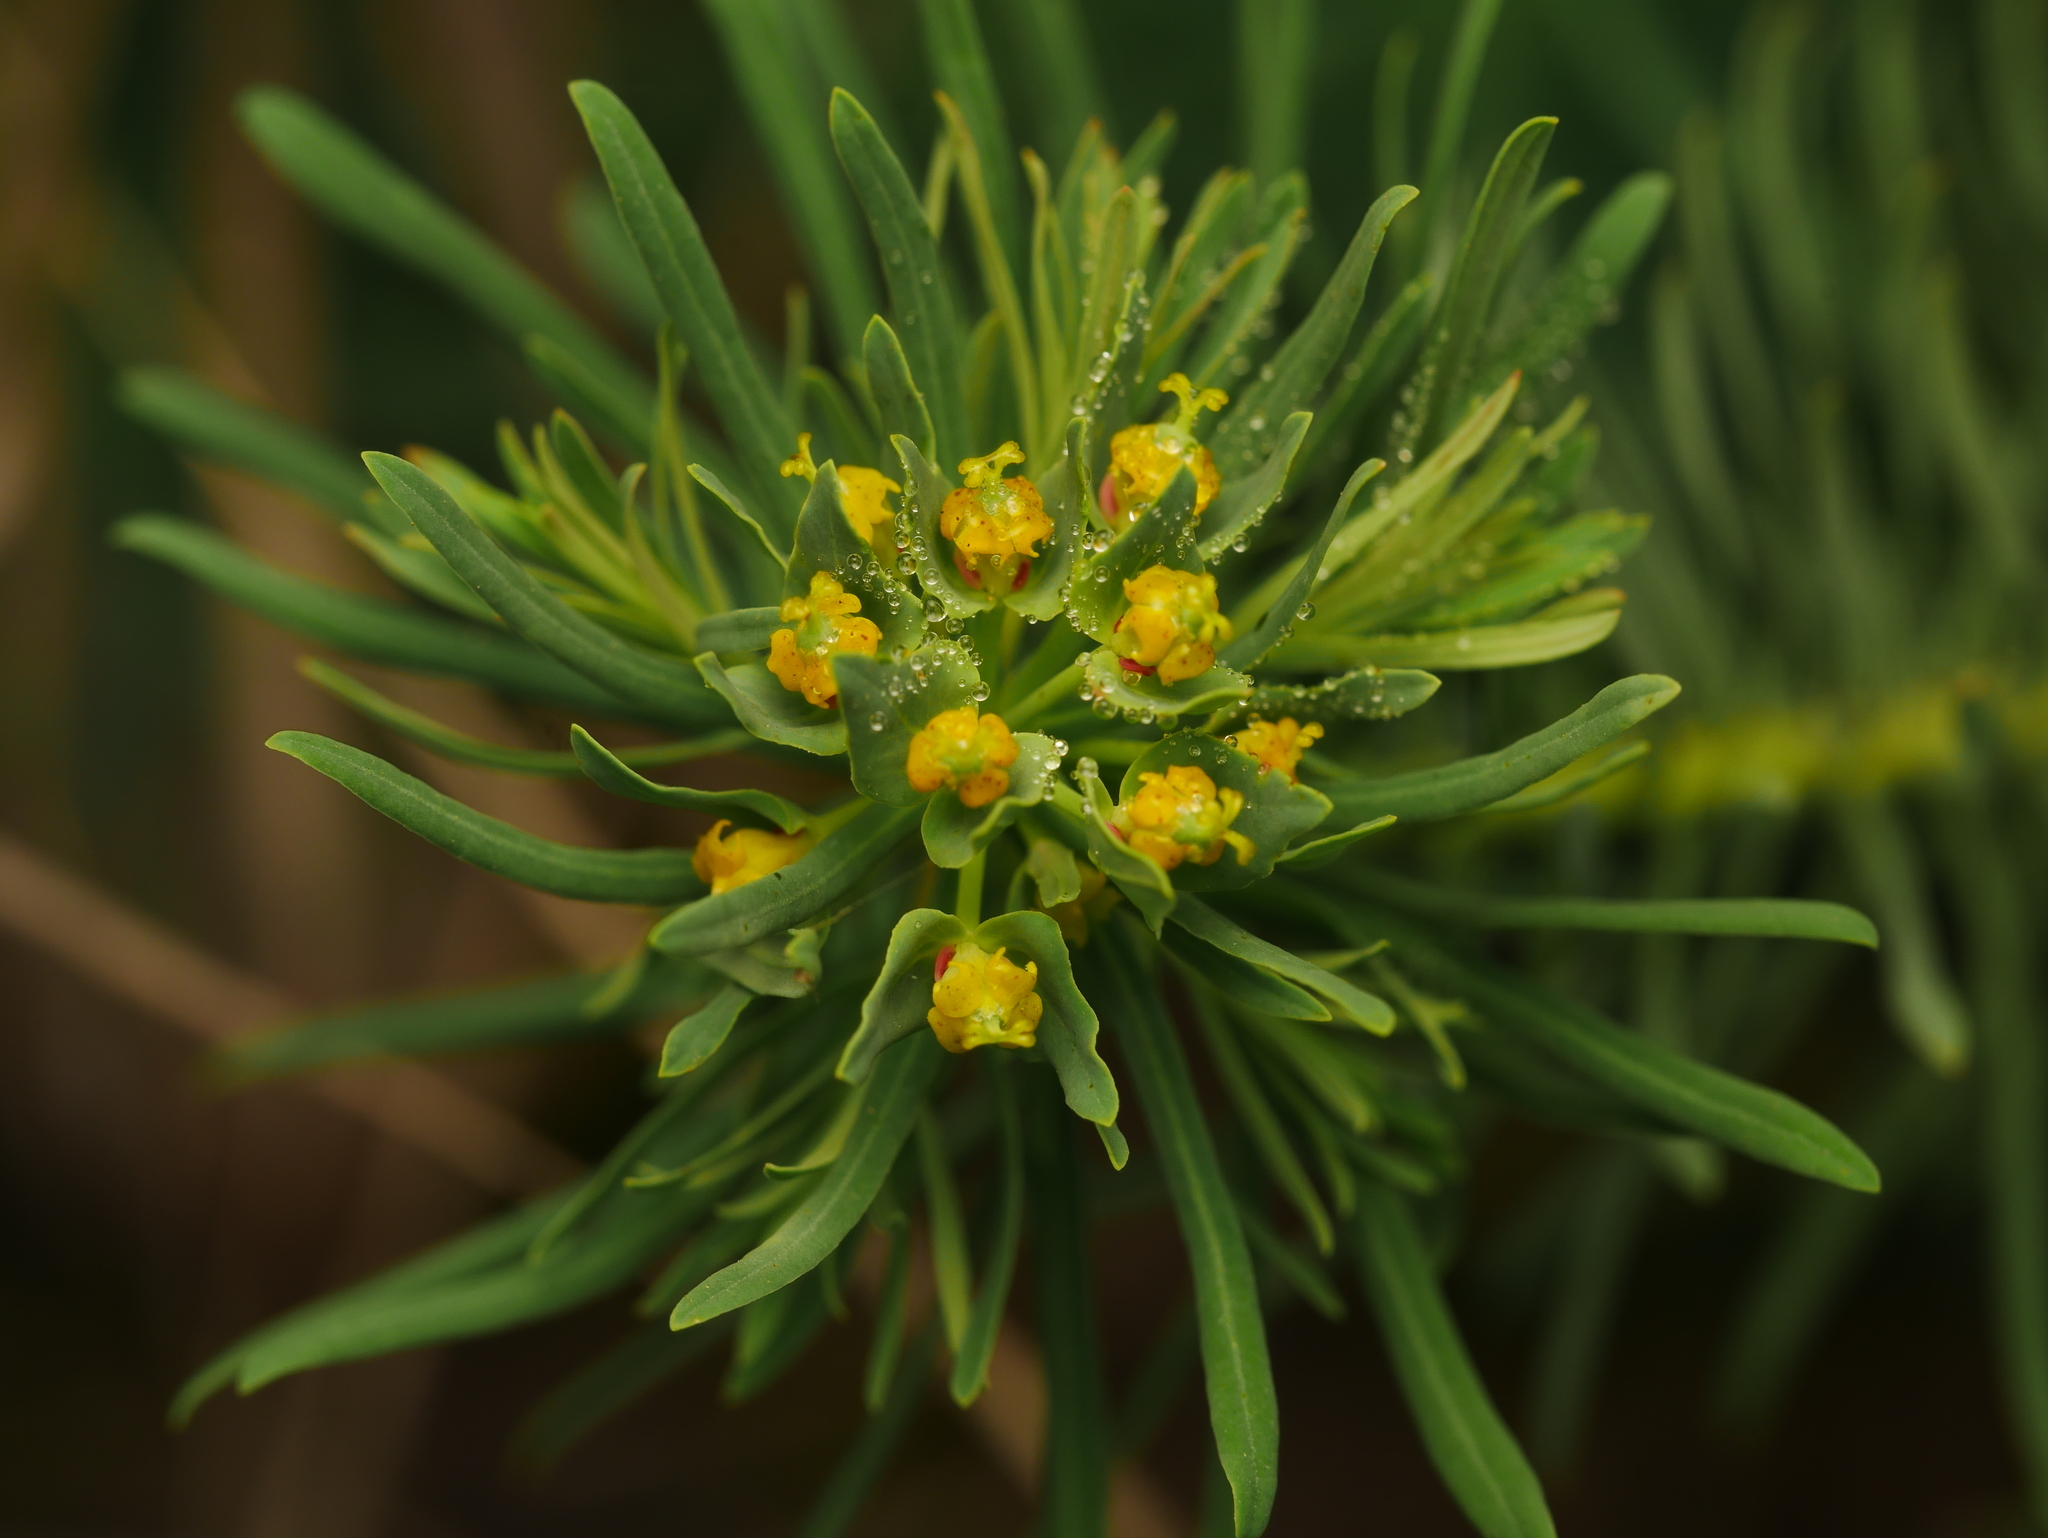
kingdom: Plantae
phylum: Tracheophyta
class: Magnoliopsida
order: Malpighiales
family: Euphorbiaceae
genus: Euphorbia
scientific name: Euphorbia cyparissias
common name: Cypress spurge
